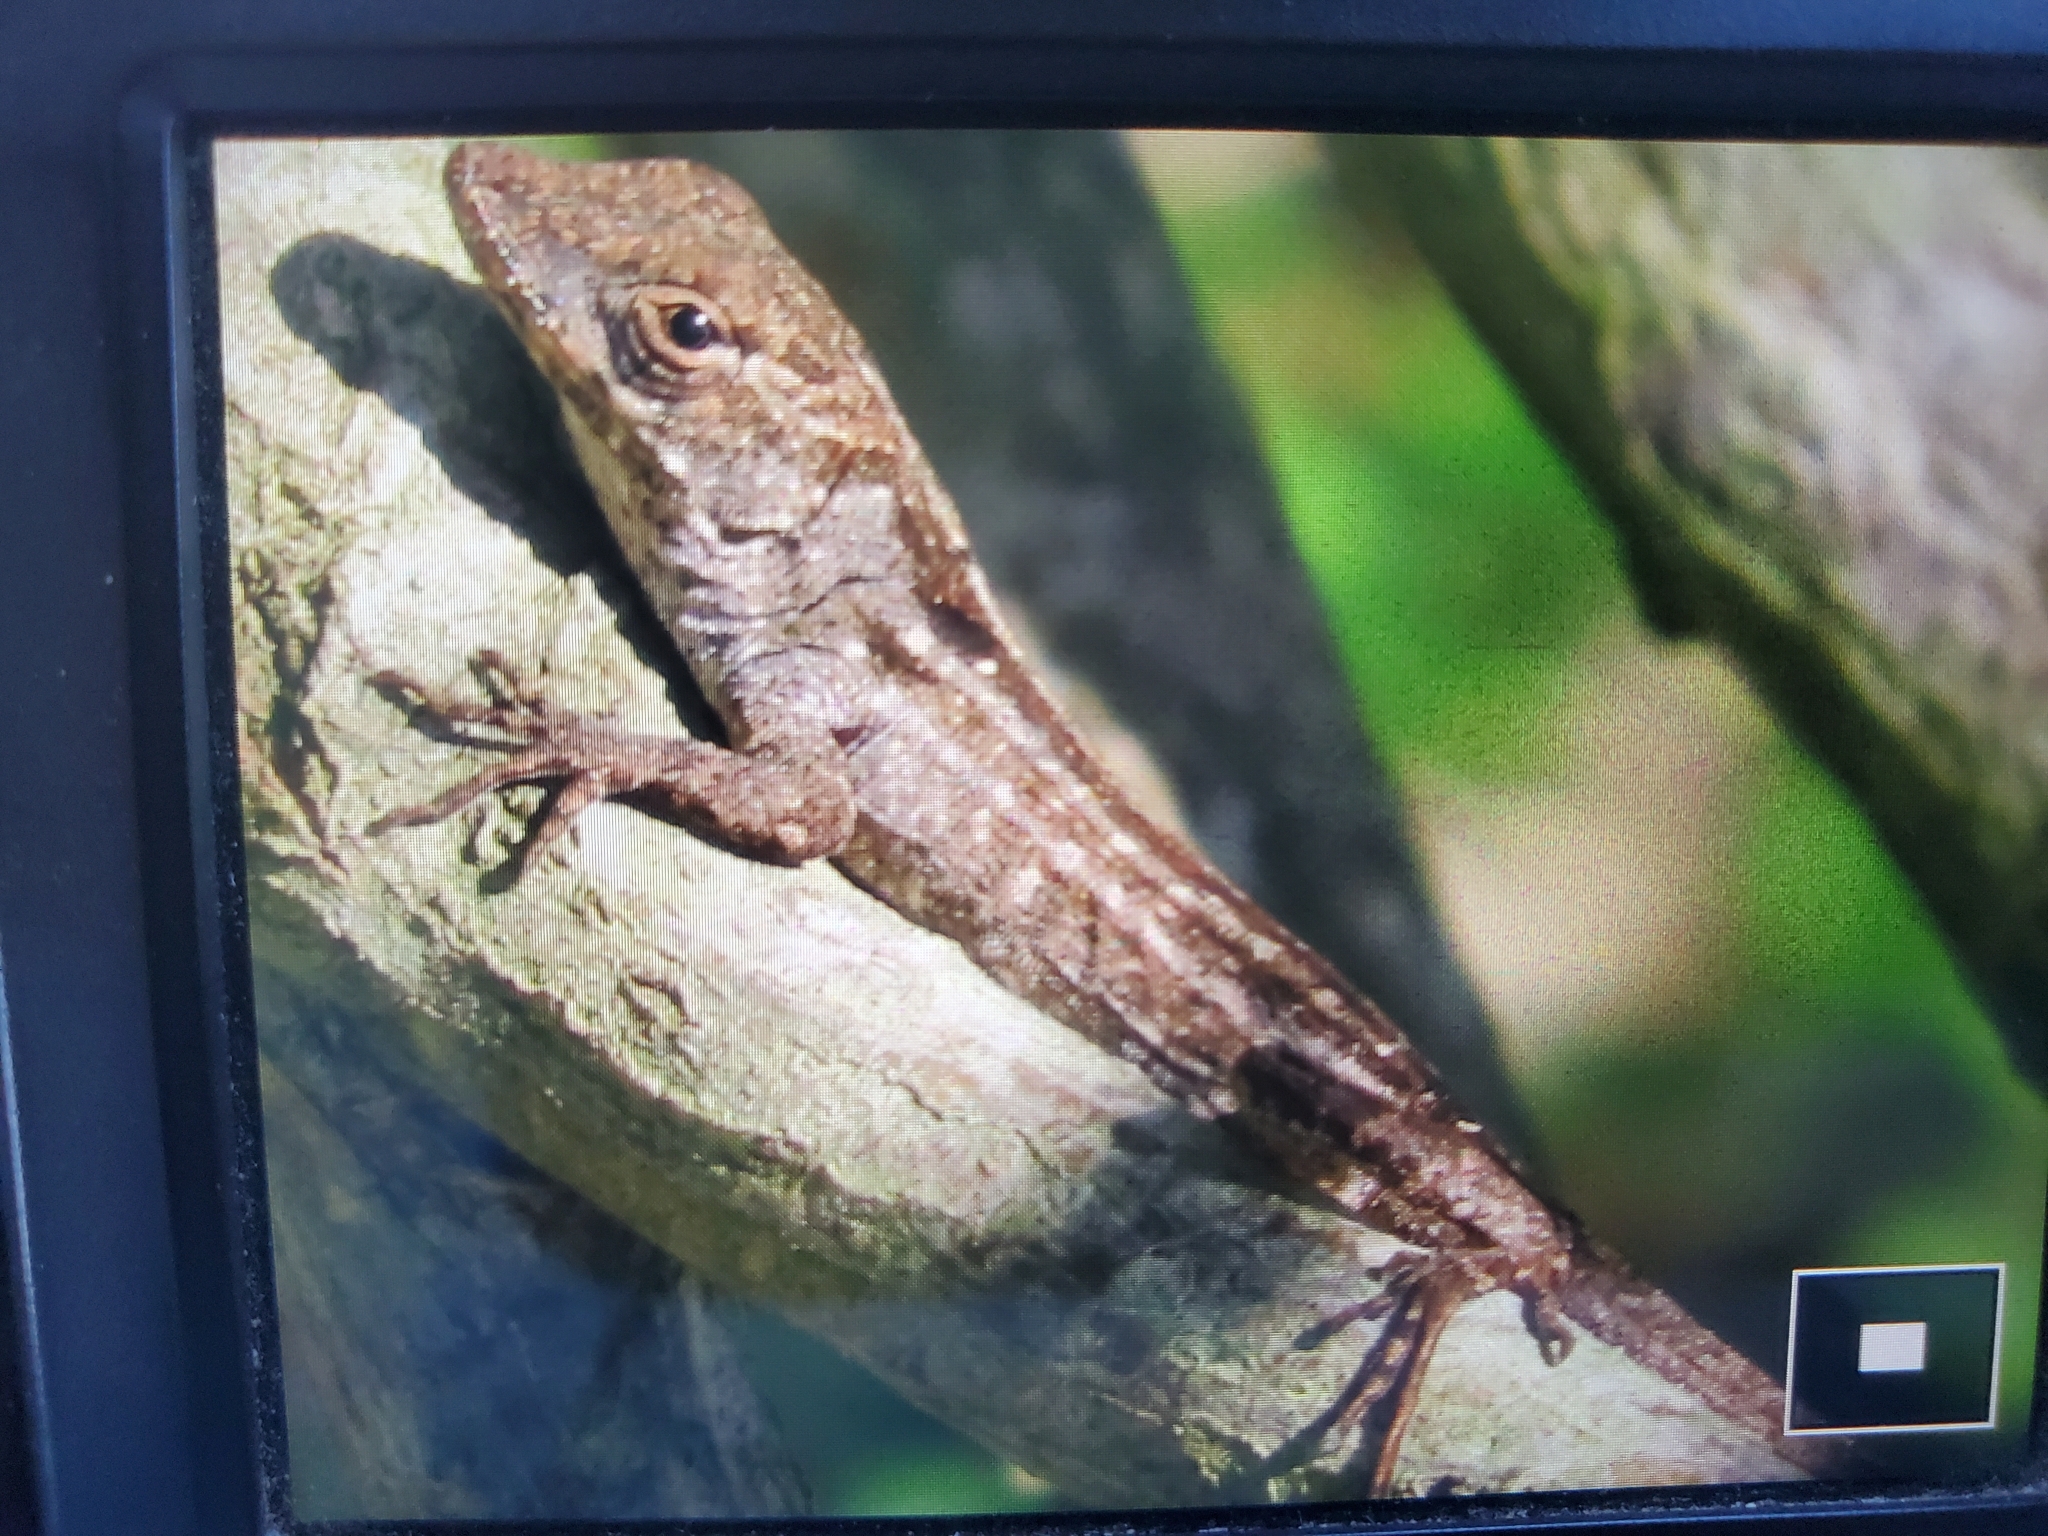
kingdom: Animalia
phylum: Chordata
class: Squamata
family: Dactyloidae
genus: Anolis
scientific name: Anolis sagrei
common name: Brown anole
